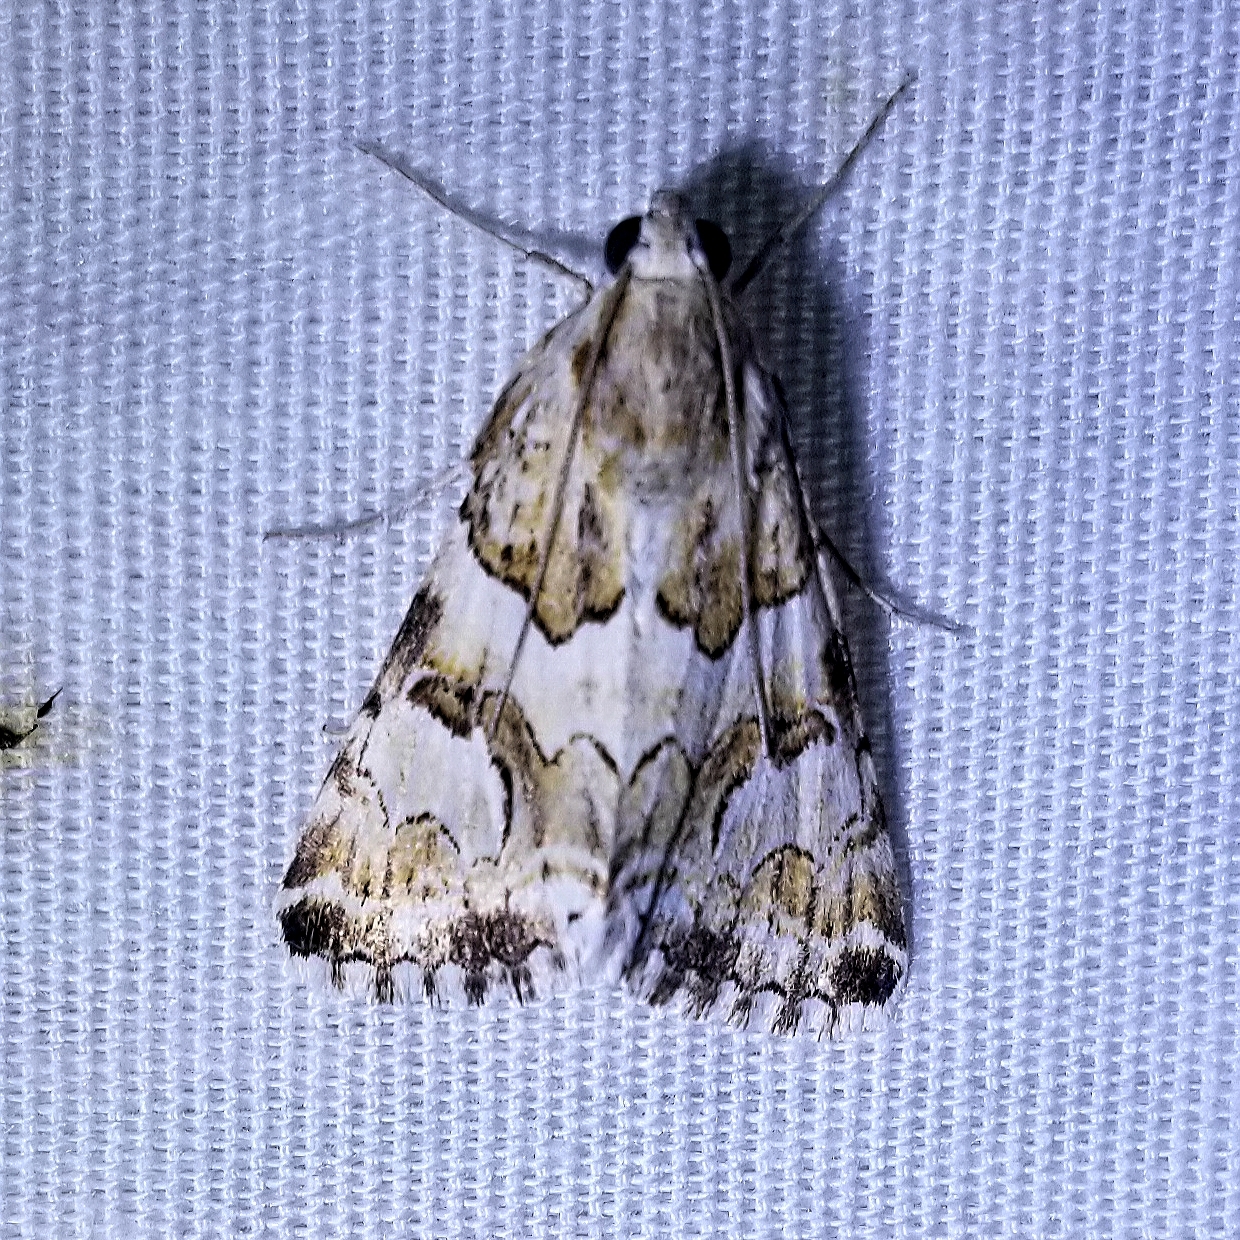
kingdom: Animalia
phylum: Arthropoda
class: Insecta
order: Lepidoptera
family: Erebidae
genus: Drasteria
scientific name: Drasteria eubapta
